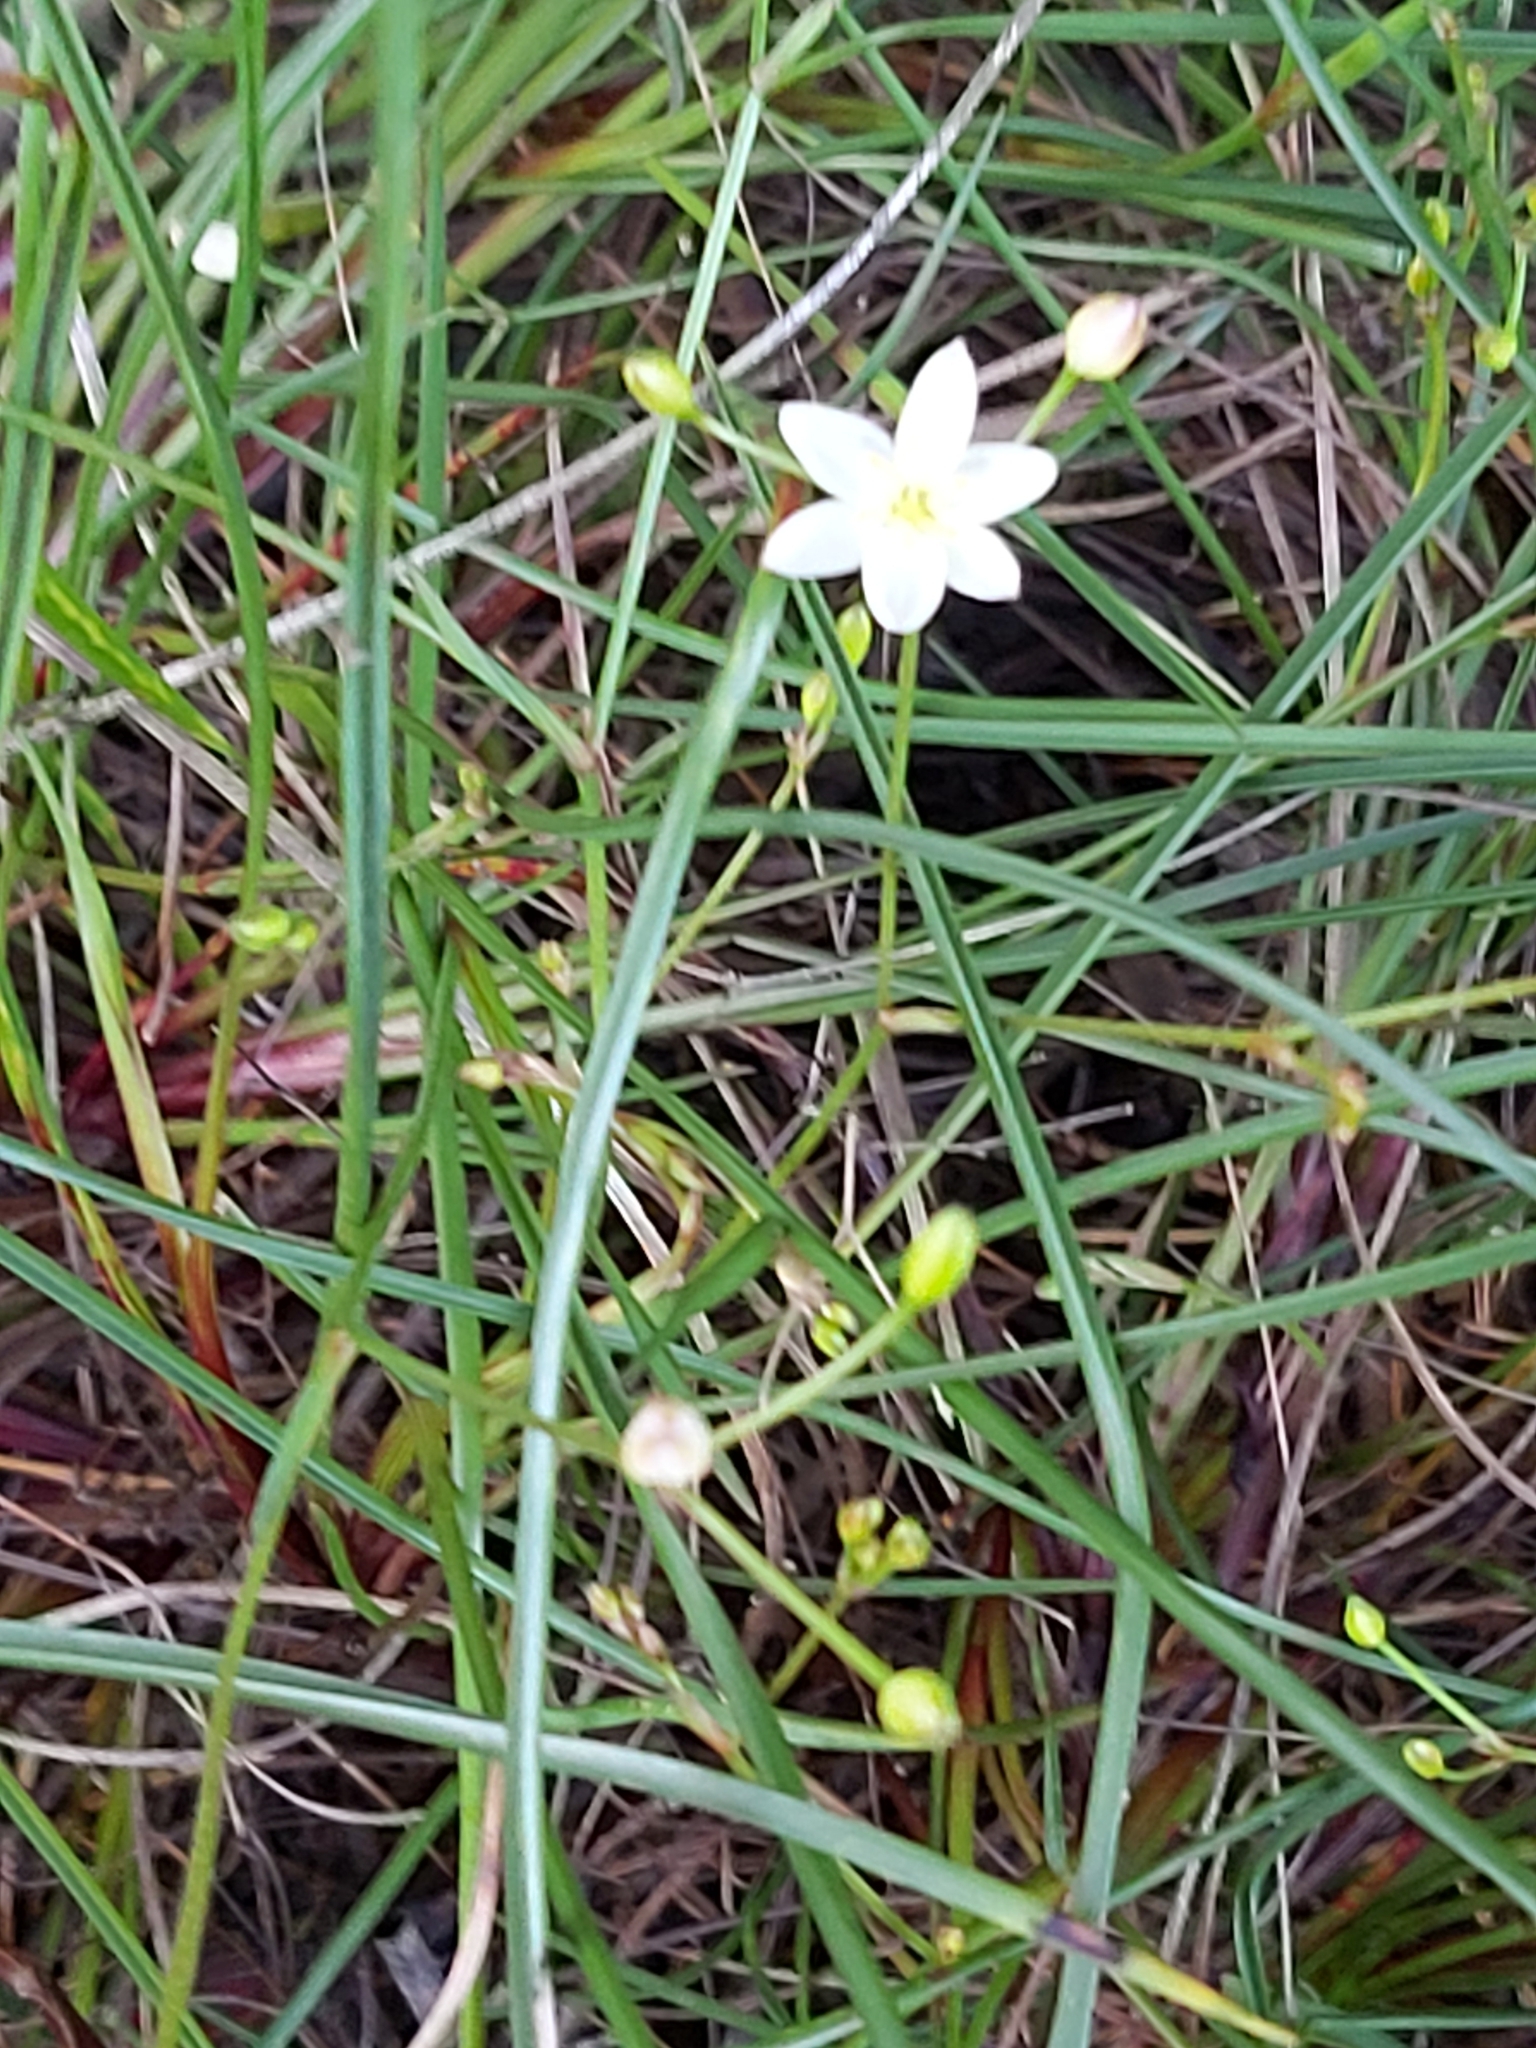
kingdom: Plantae
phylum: Tracheophyta
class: Liliopsida
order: Asparagales
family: Asphodelaceae
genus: Thelionema
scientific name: Thelionema umbellatum
